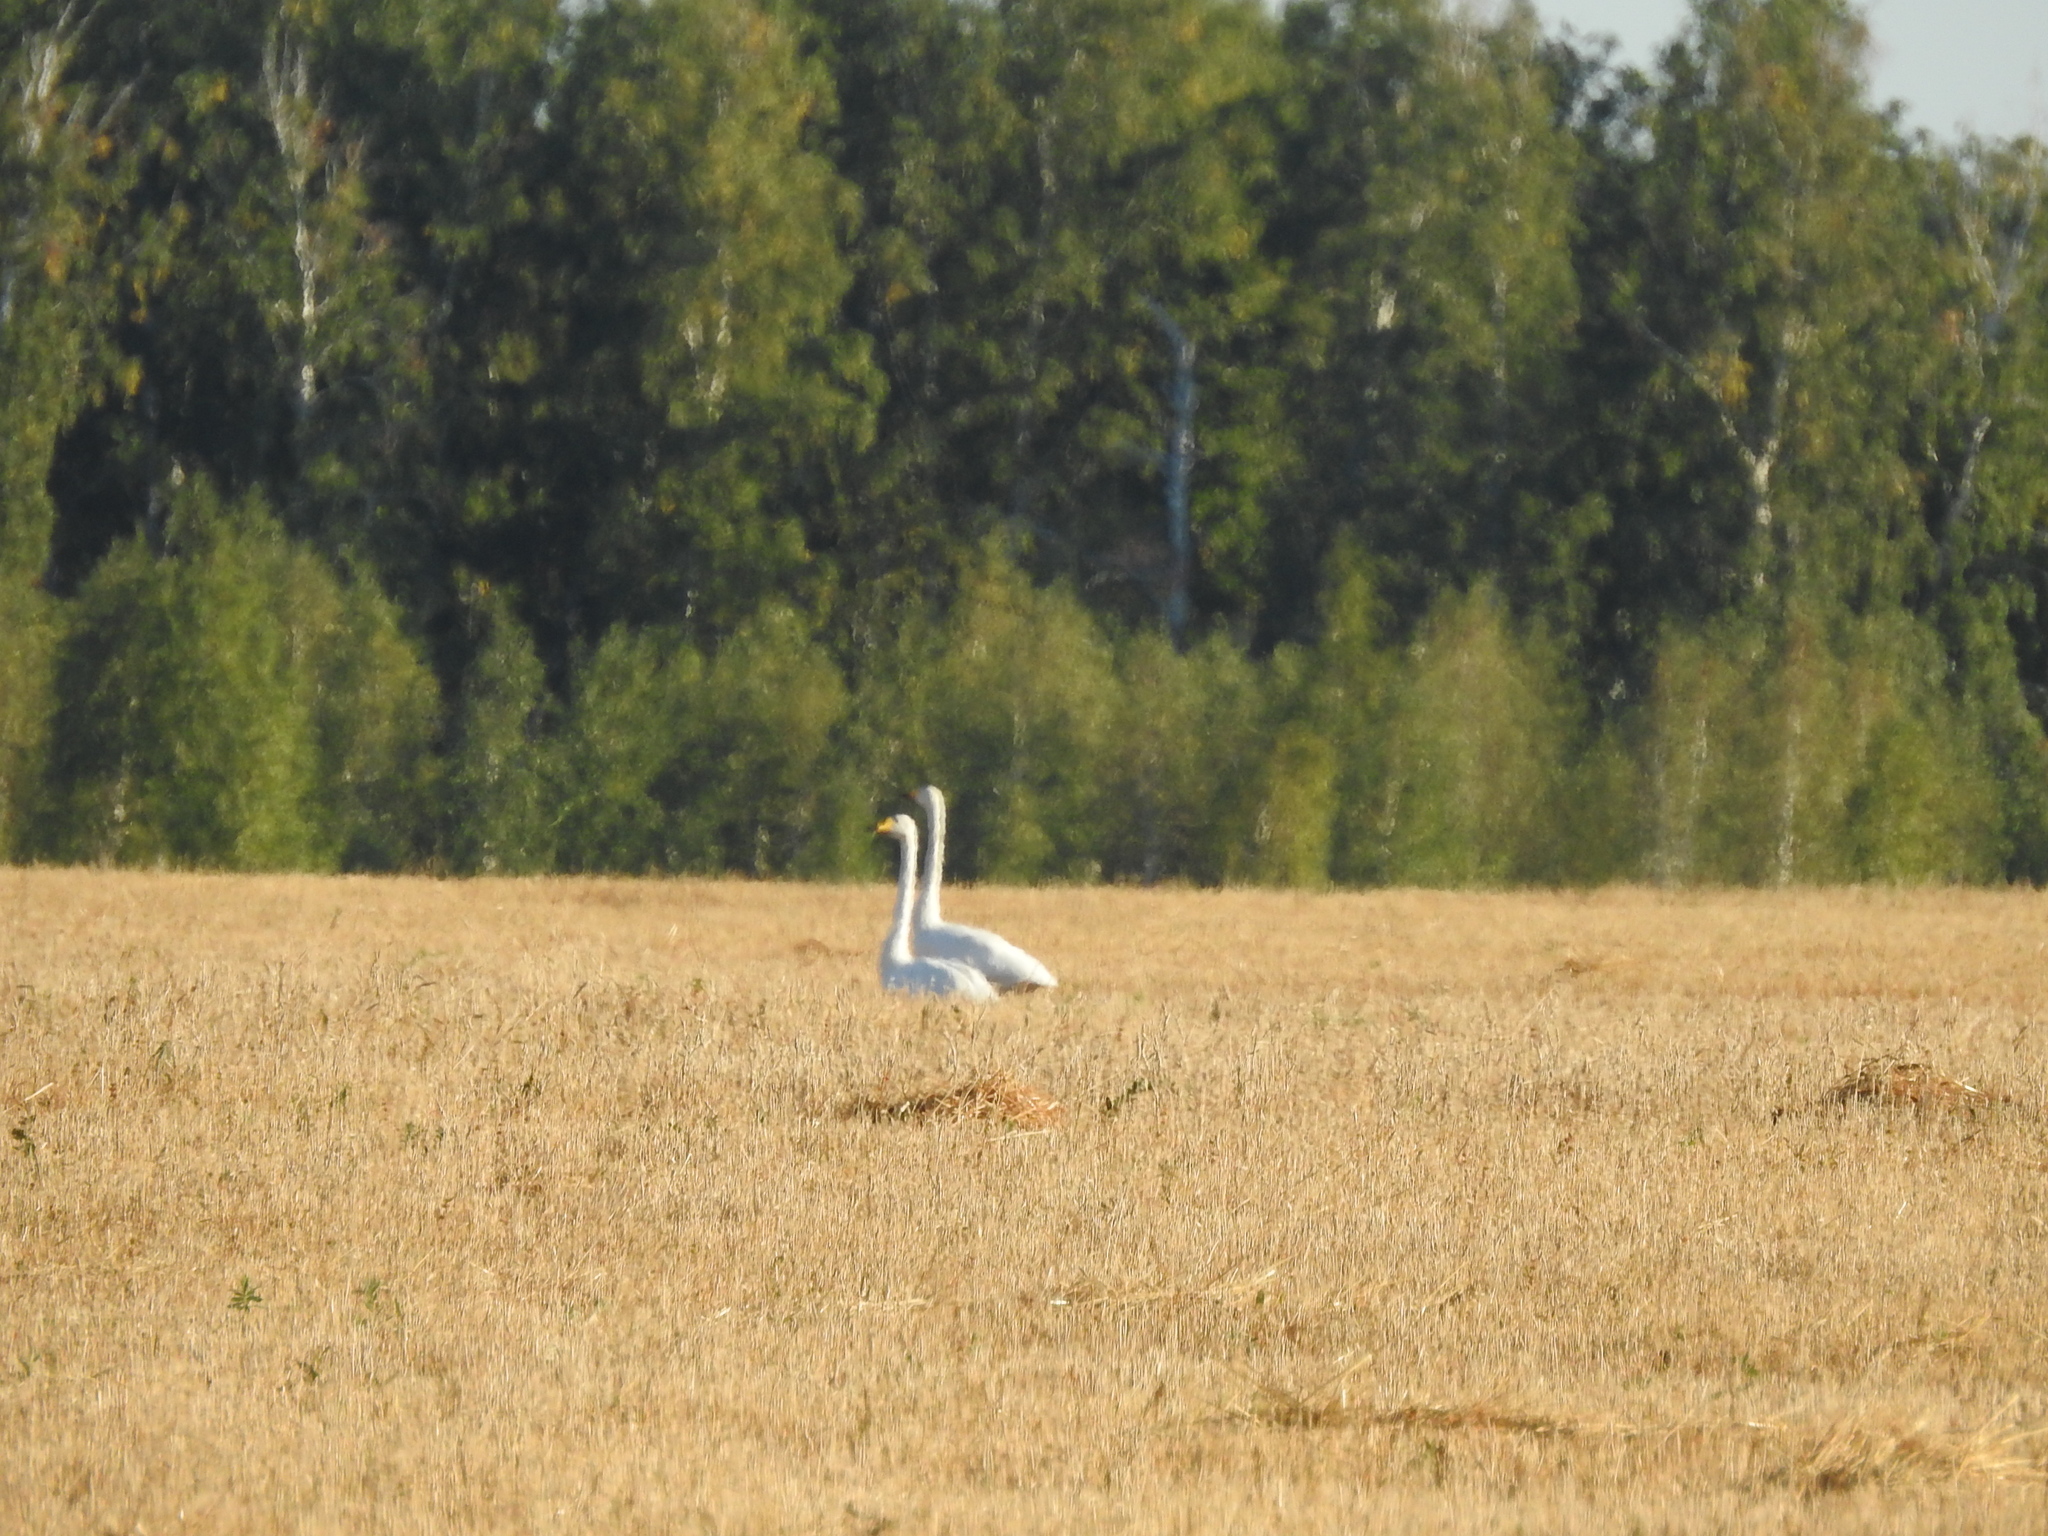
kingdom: Animalia
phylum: Chordata
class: Aves
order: Anseriformes
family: Anatidae
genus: Cygnus
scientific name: Cygnus cygnus
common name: Whooper swan
